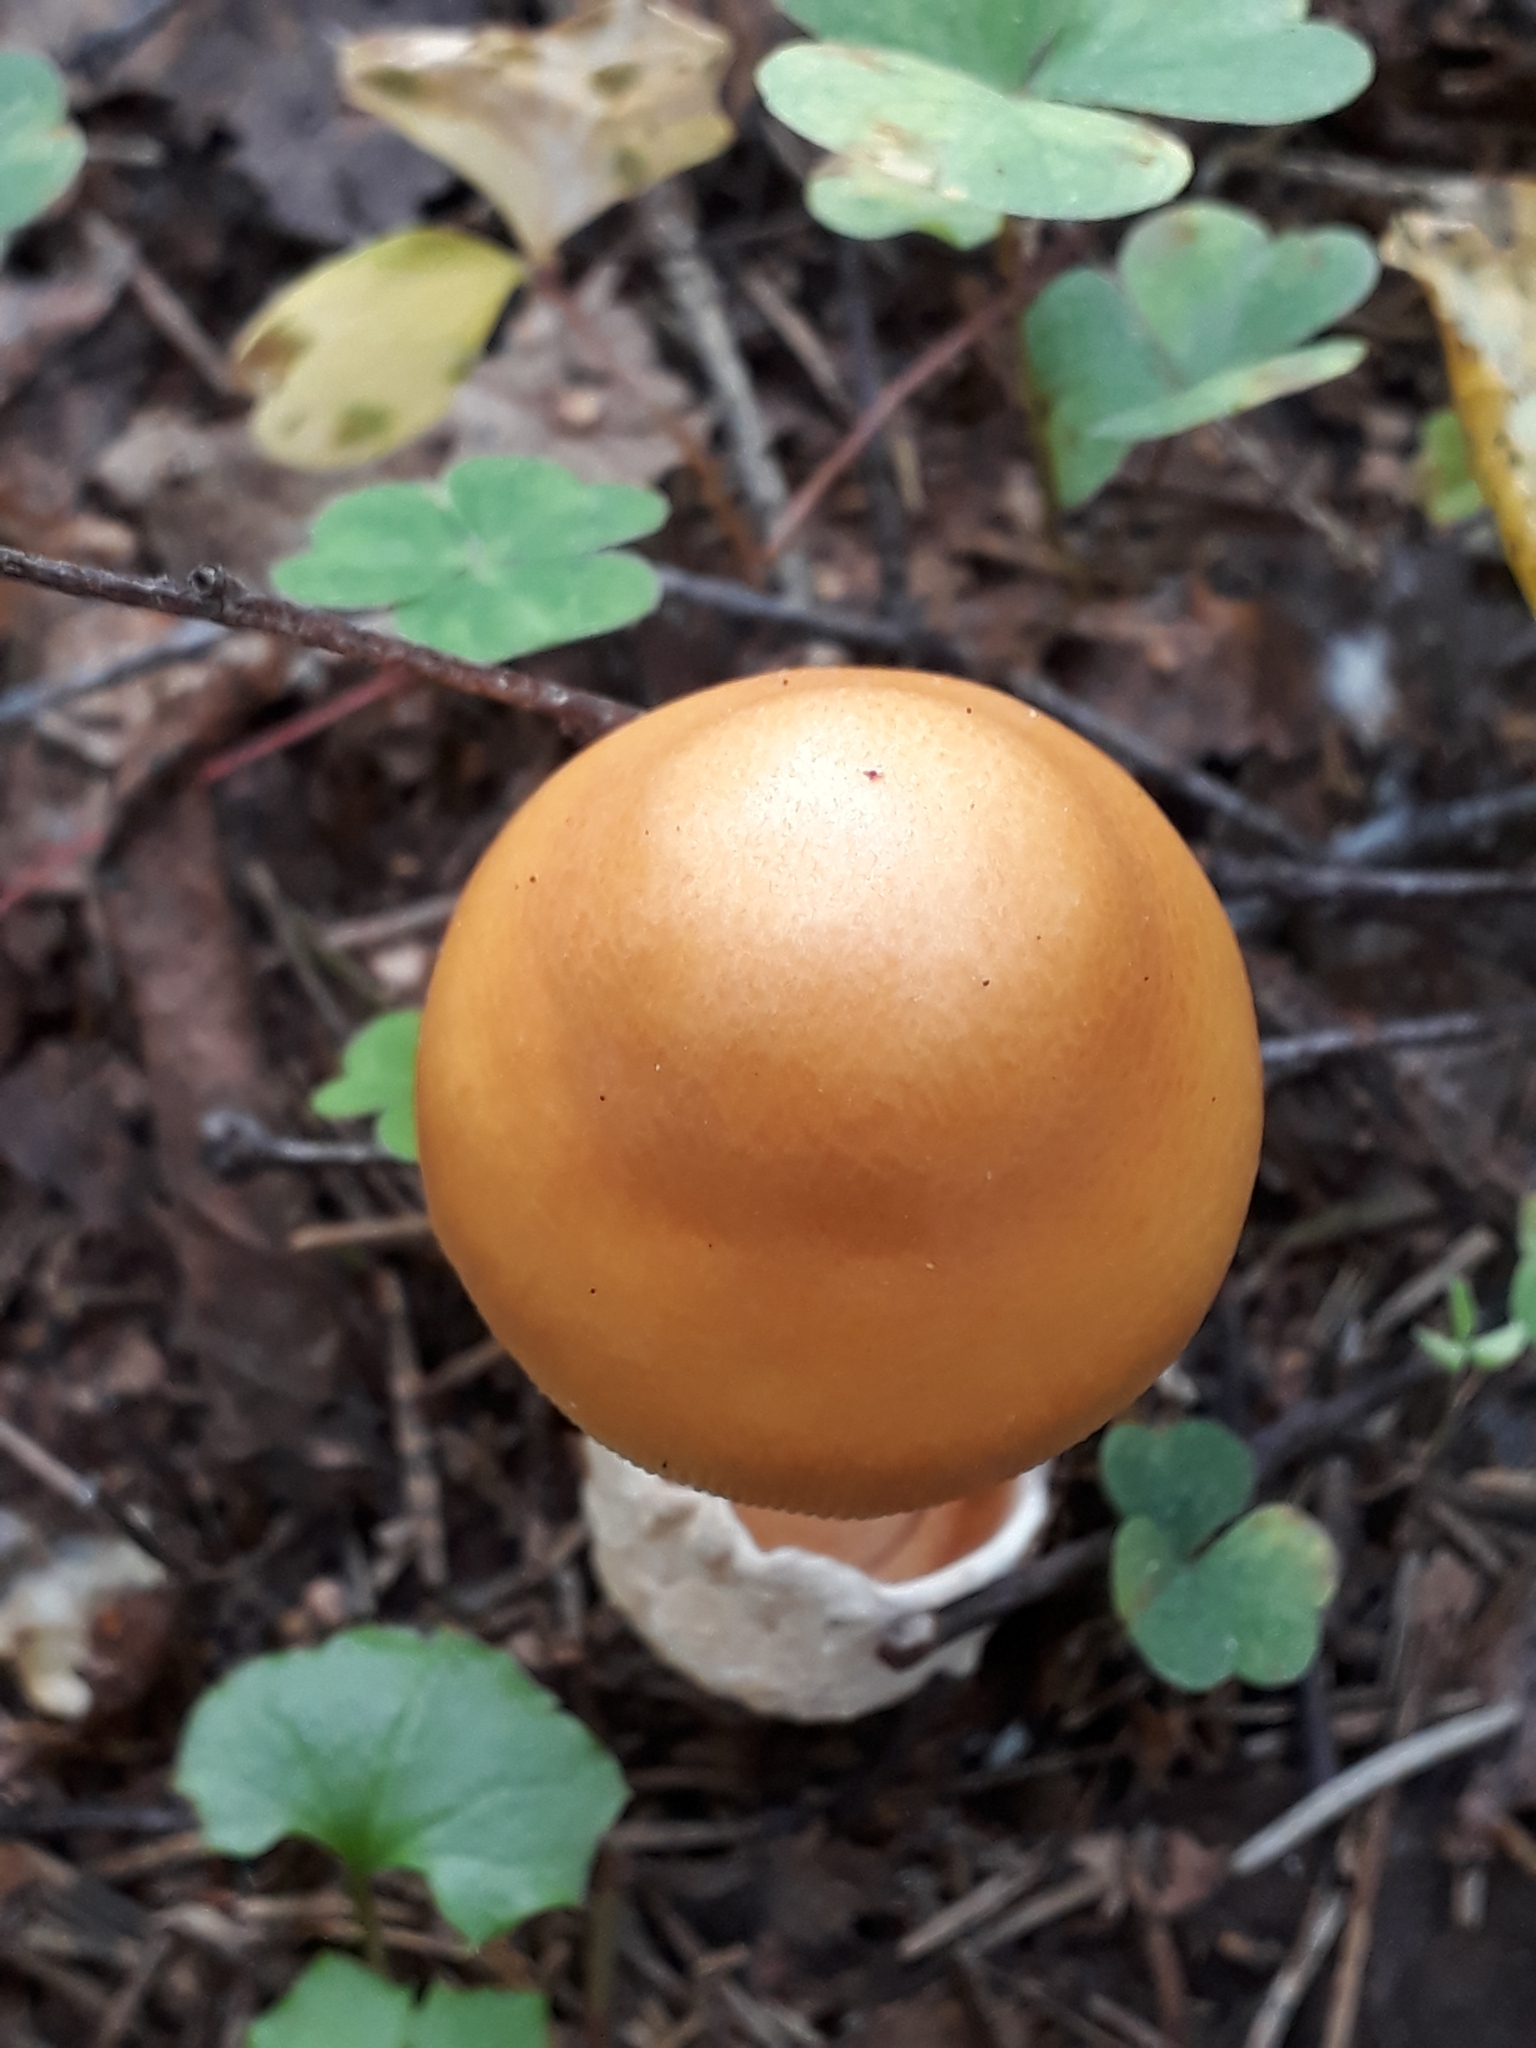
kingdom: Fungi
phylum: Basidiomycota
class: Agaricomycetes
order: Agaricales
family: Amanitaceae
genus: Amanita
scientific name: Amanita crocea
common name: Orange grisette
